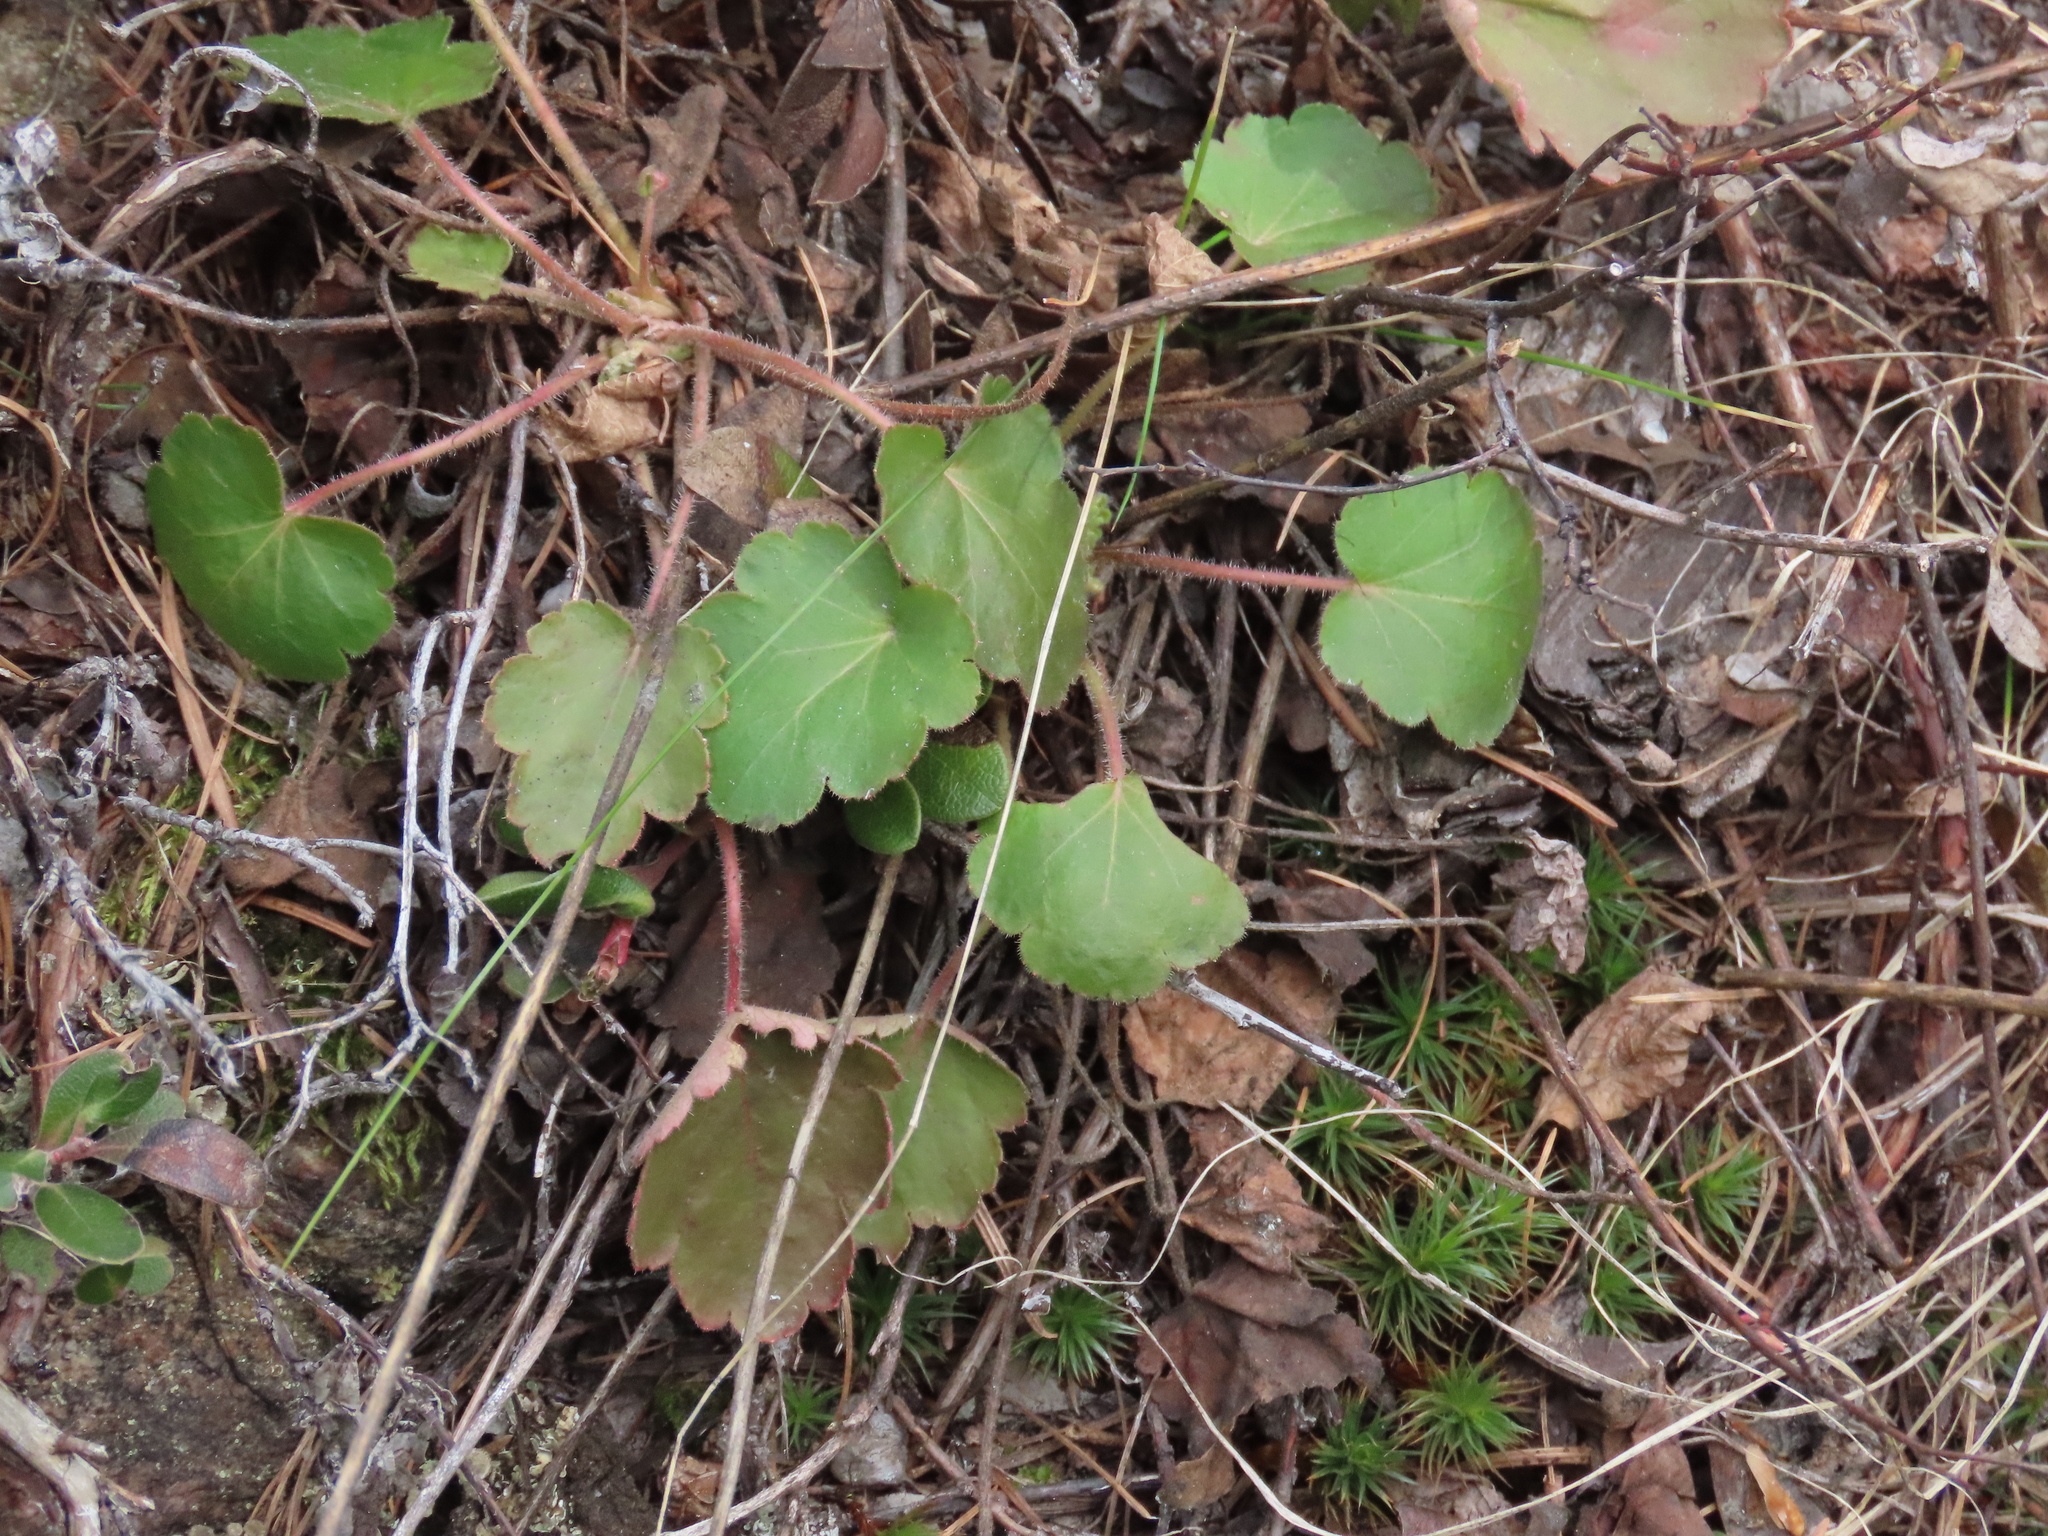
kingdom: Plantae
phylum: Tracheophyta
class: Magnoliopsida
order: Saxifragales
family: Saxifragaceae
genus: Heuchera
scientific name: Heuchera cylindrica
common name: Mat alumroot
